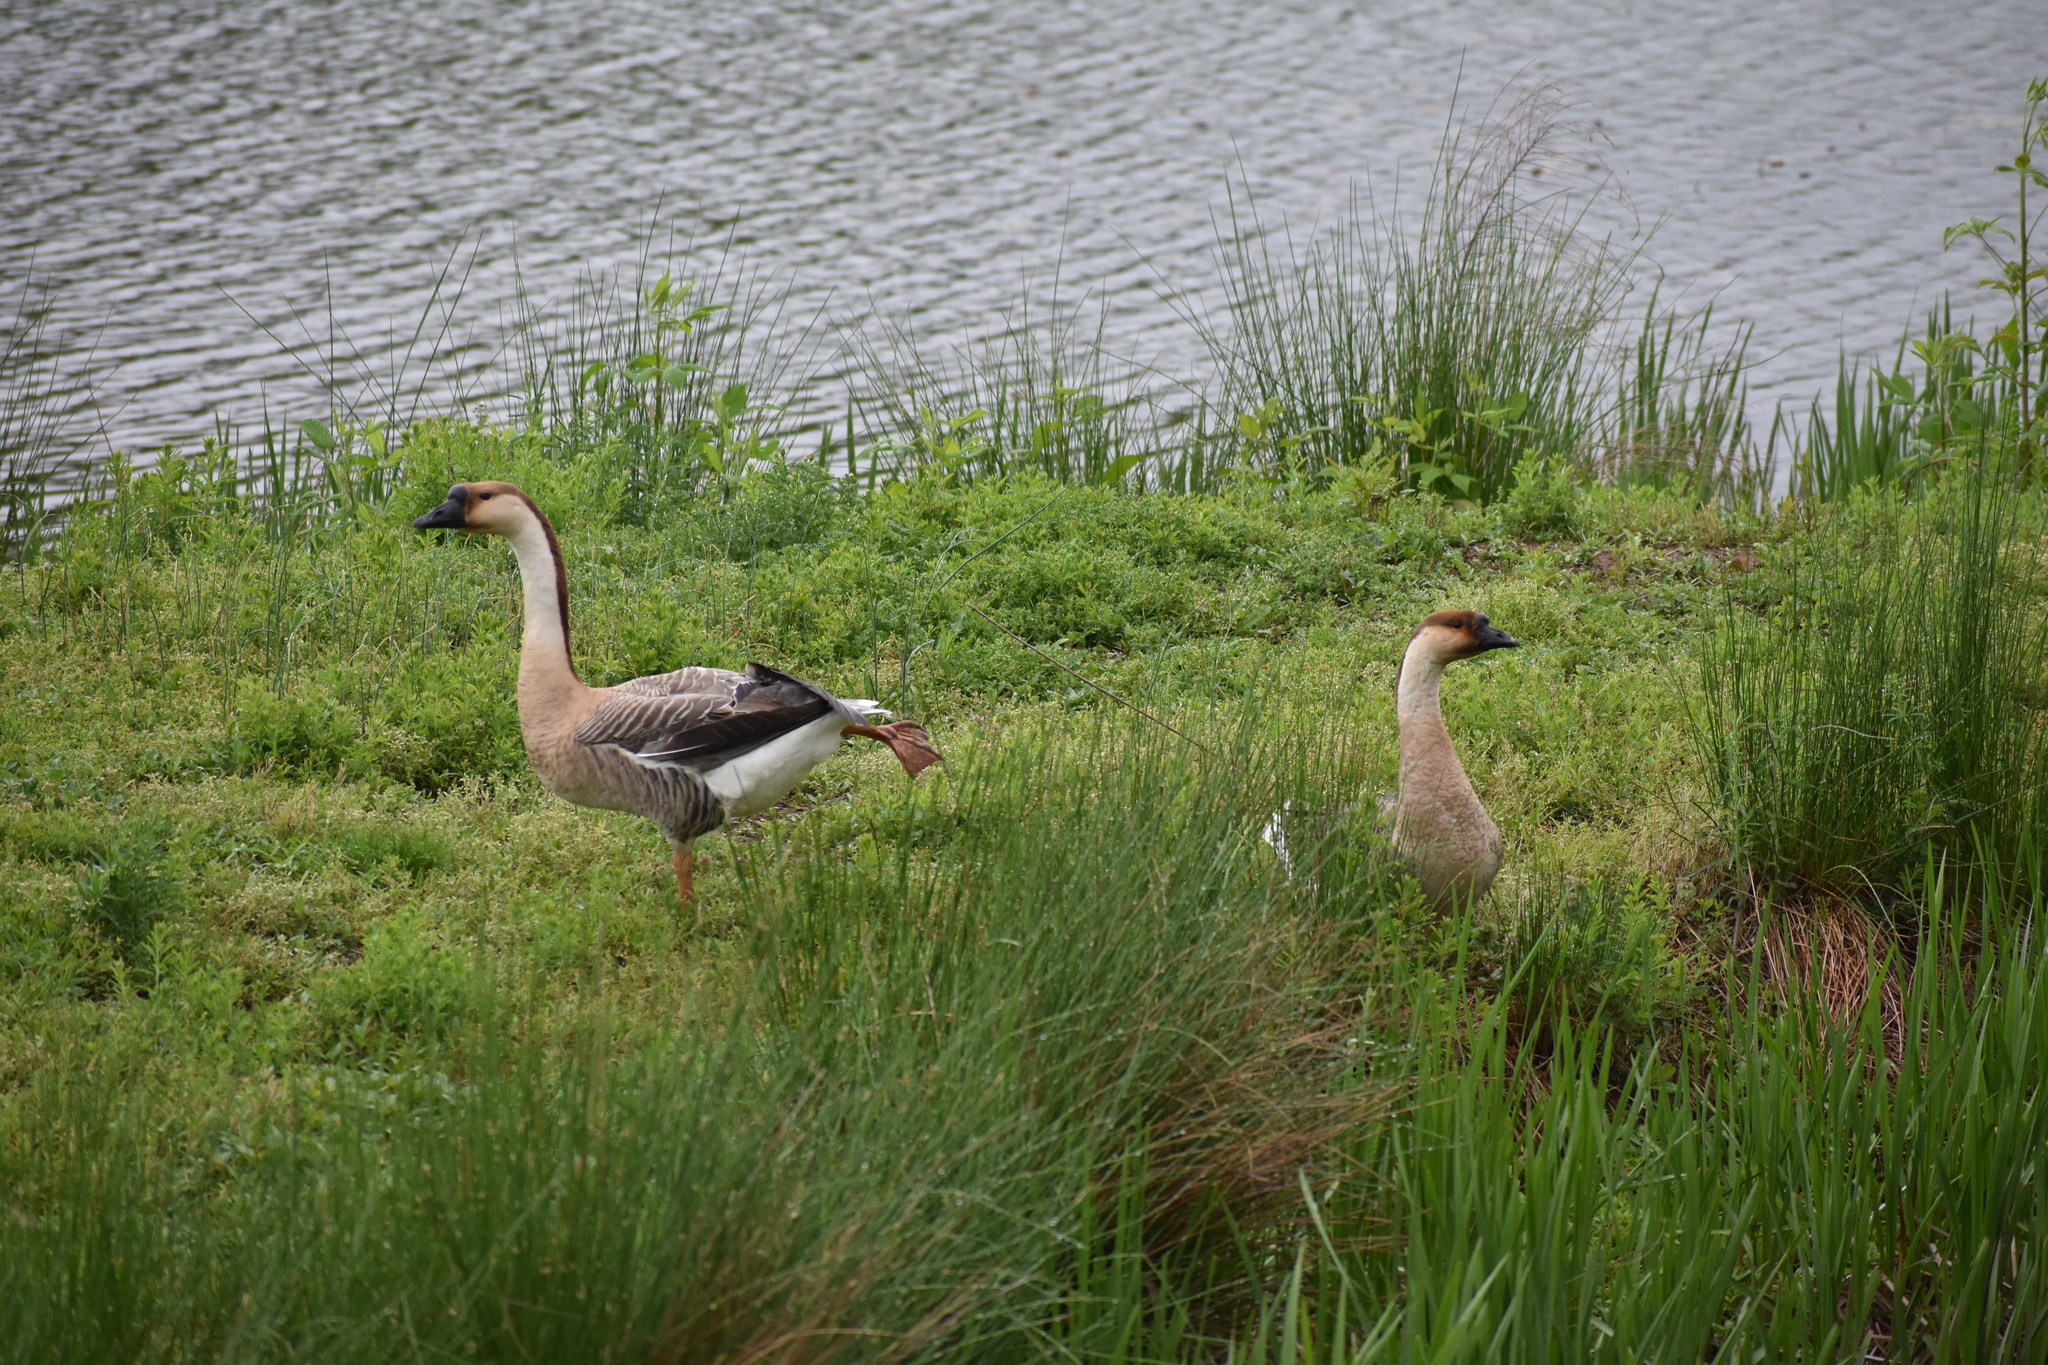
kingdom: Animalia
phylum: Chordata
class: Aves
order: Anseriformes
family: Anatidae
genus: Anser
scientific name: Anser cygnoides
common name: Swan goose
